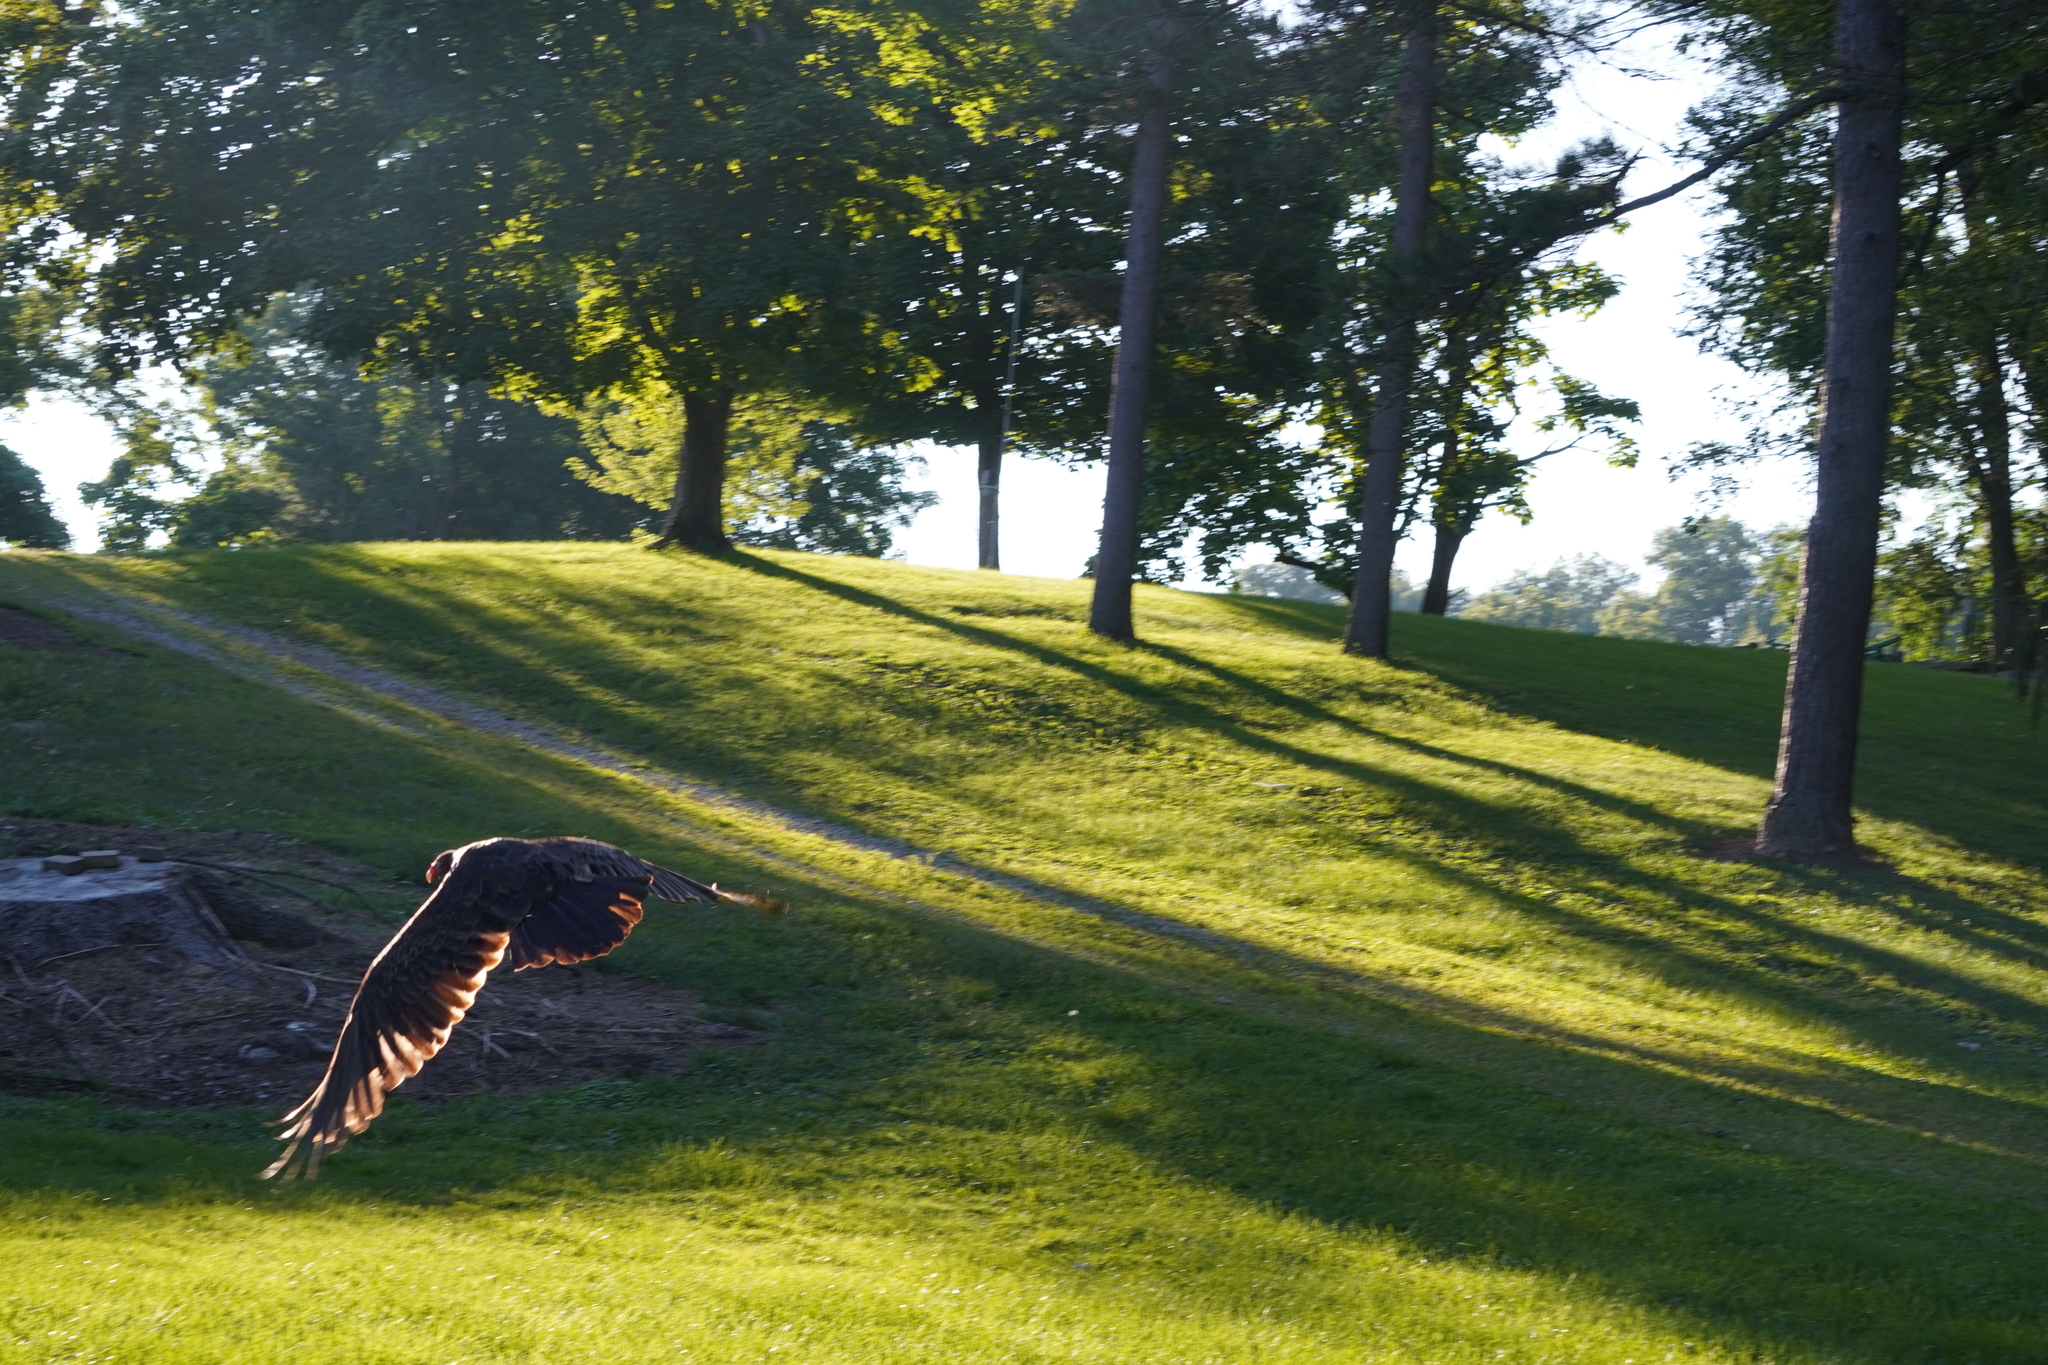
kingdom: Animalia
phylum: Chordata
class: Aves
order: Accipitriformes
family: Cathartidae
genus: Cathartes
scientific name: Cathartes aura
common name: Turkey vulture
